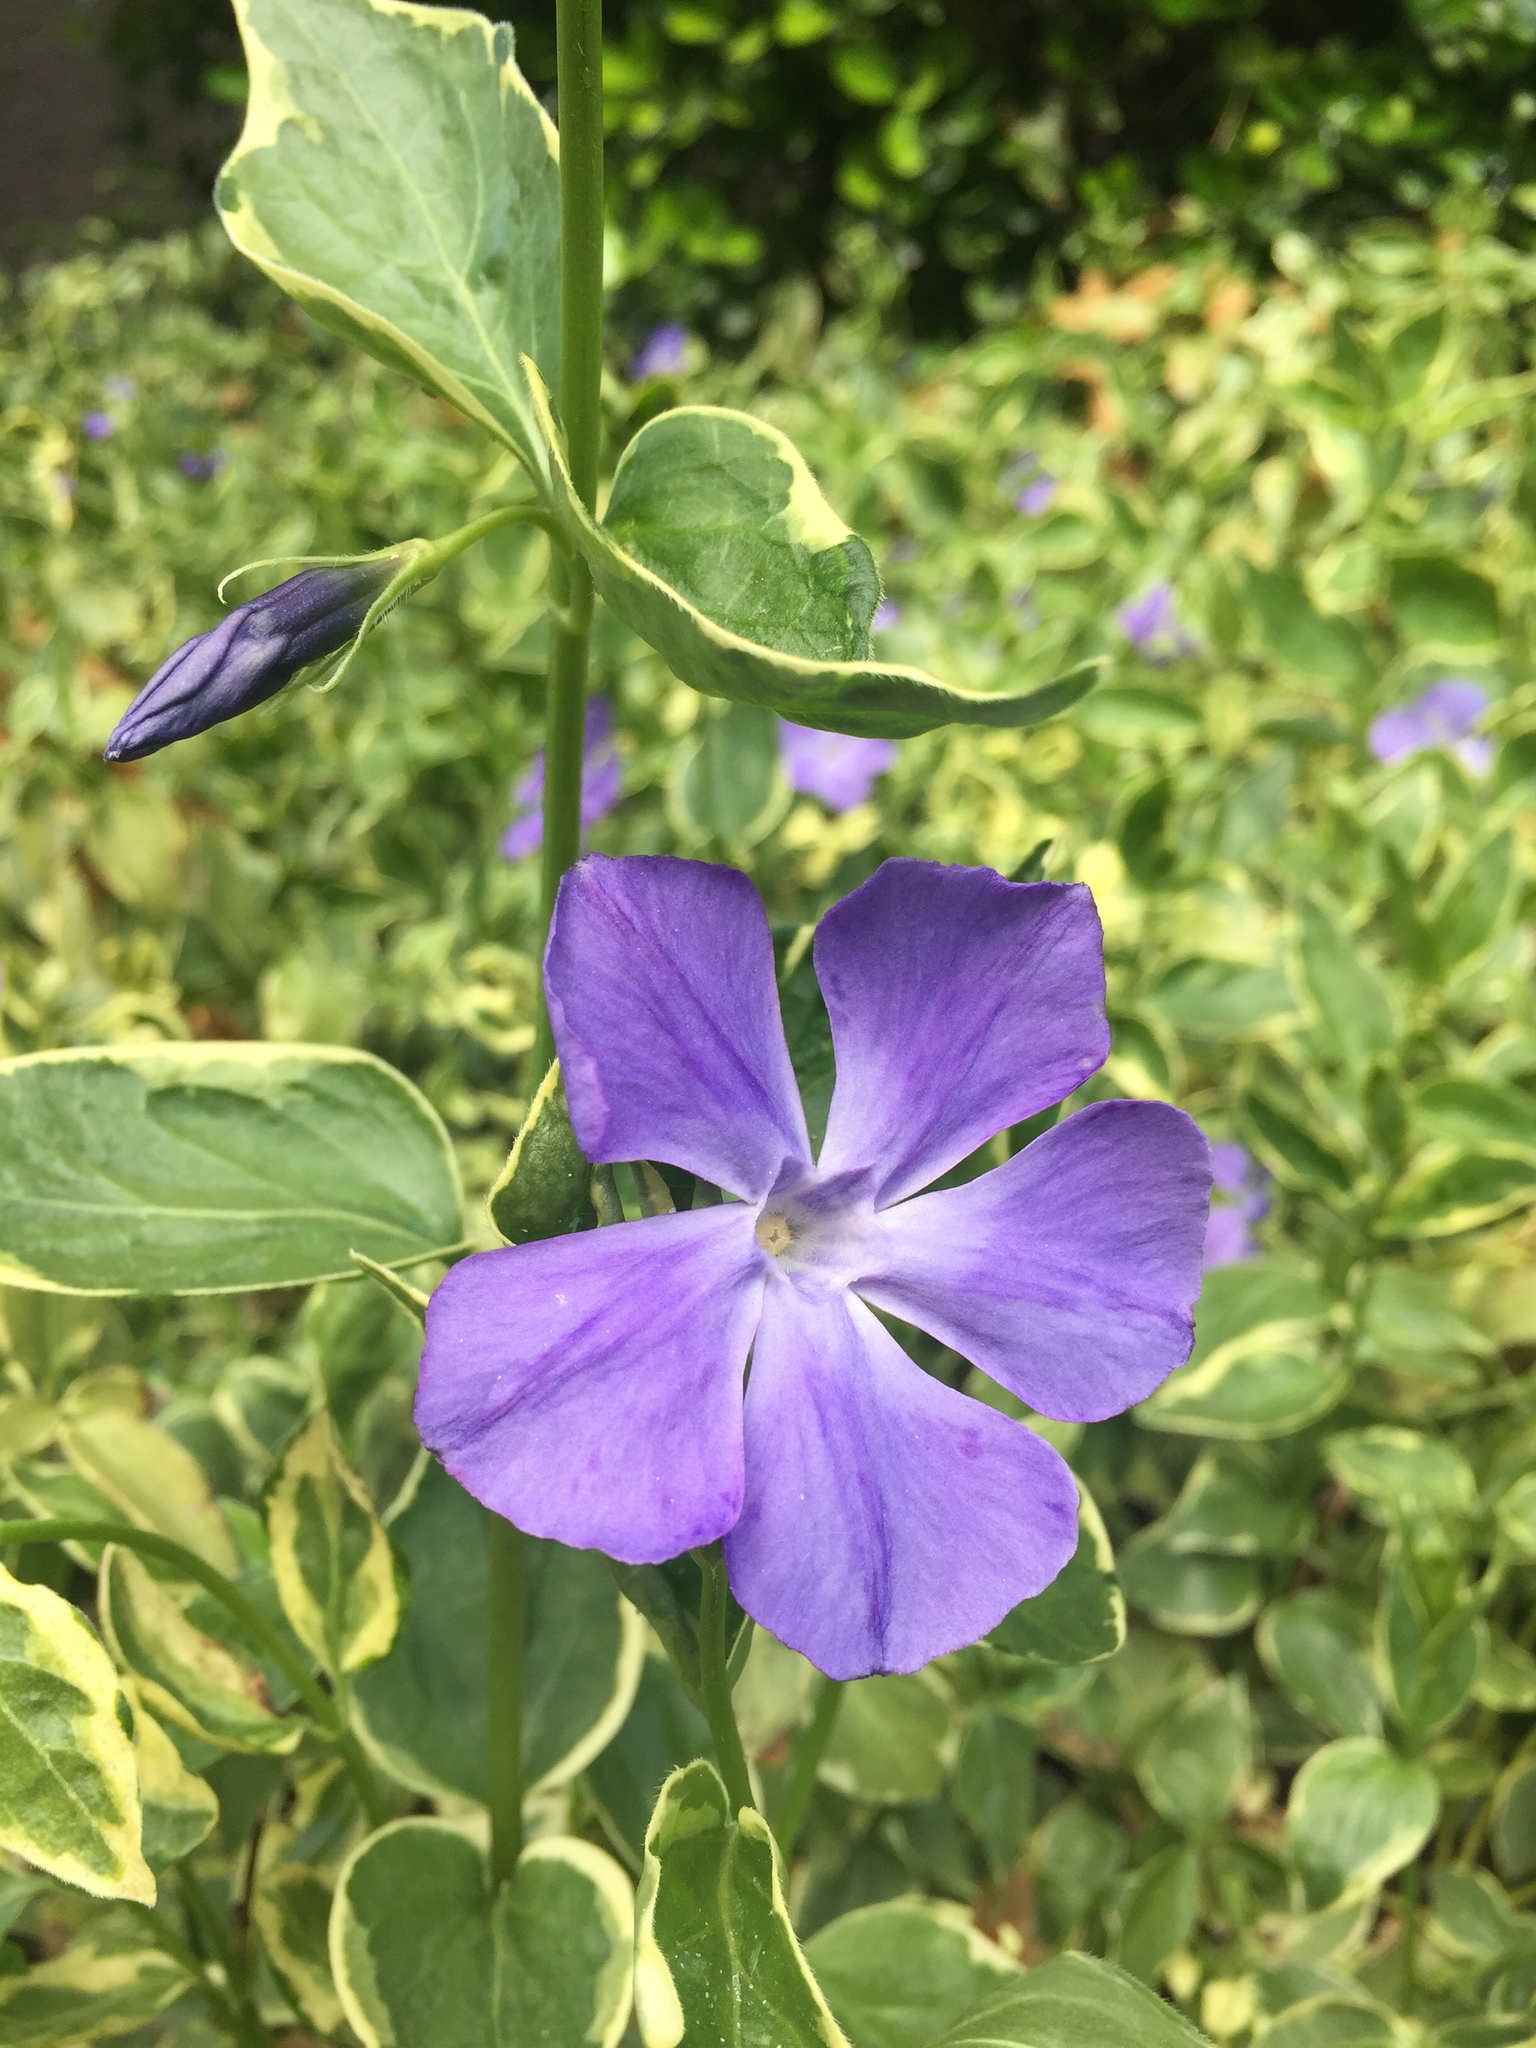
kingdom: Plantae
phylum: Tracheophyta
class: Magnoliopsida
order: Gentianales
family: Apocynaceae
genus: Vinca
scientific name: Vinca major
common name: Greater periwinkle
